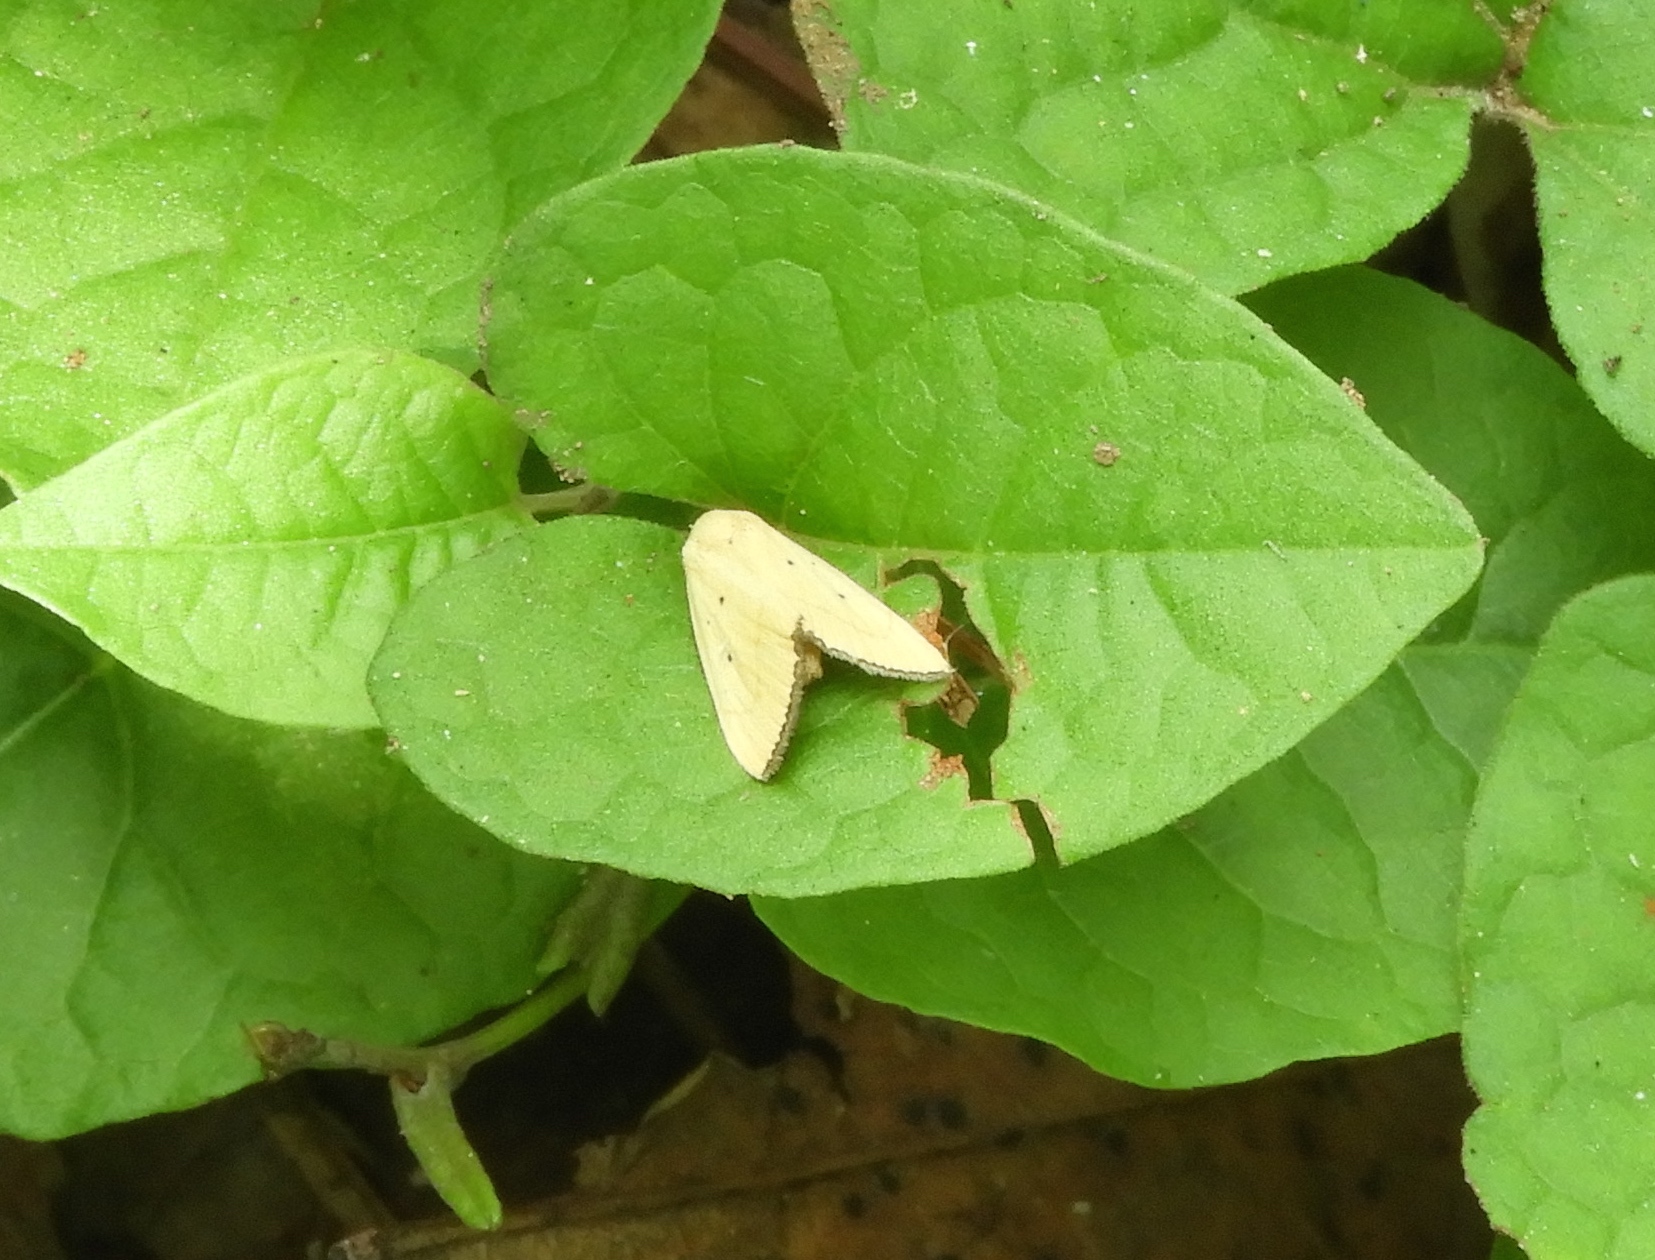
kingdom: Animalia
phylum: Arthropoda
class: Insecta
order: Lepidoptera
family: Noctuidae
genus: Marimatha
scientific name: Marimatha
